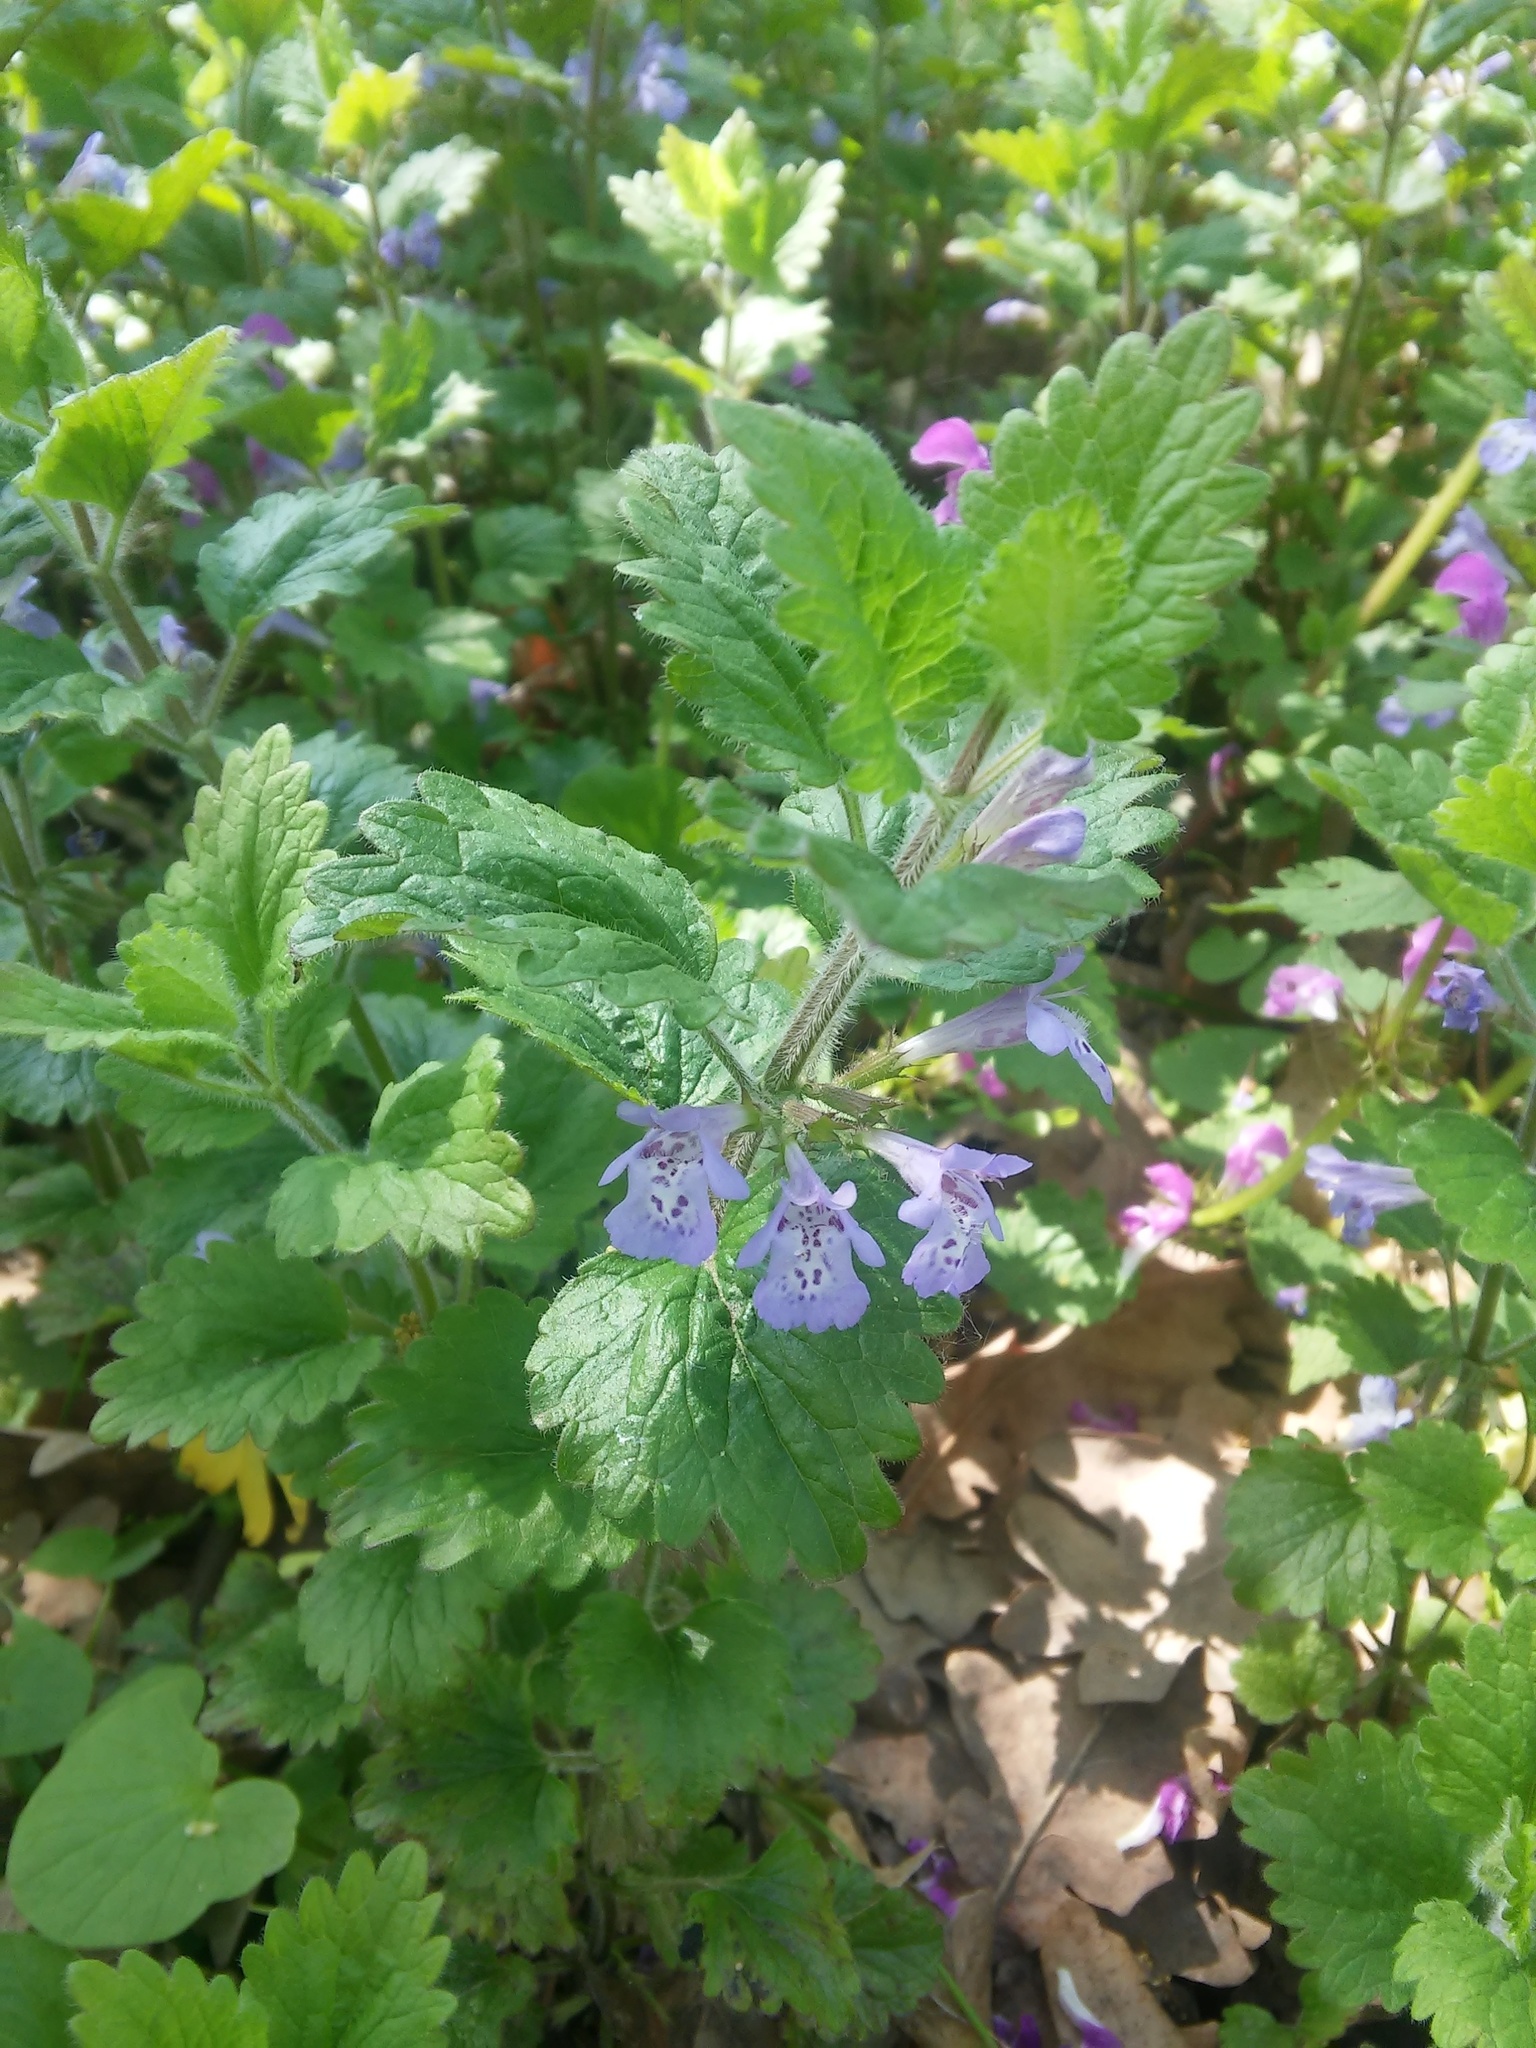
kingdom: Plantae
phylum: Tracheophyta
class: Magnoliopsida
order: Lamiales
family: Lamiaceae
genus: Glechoma
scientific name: Glechoma hirsuta
